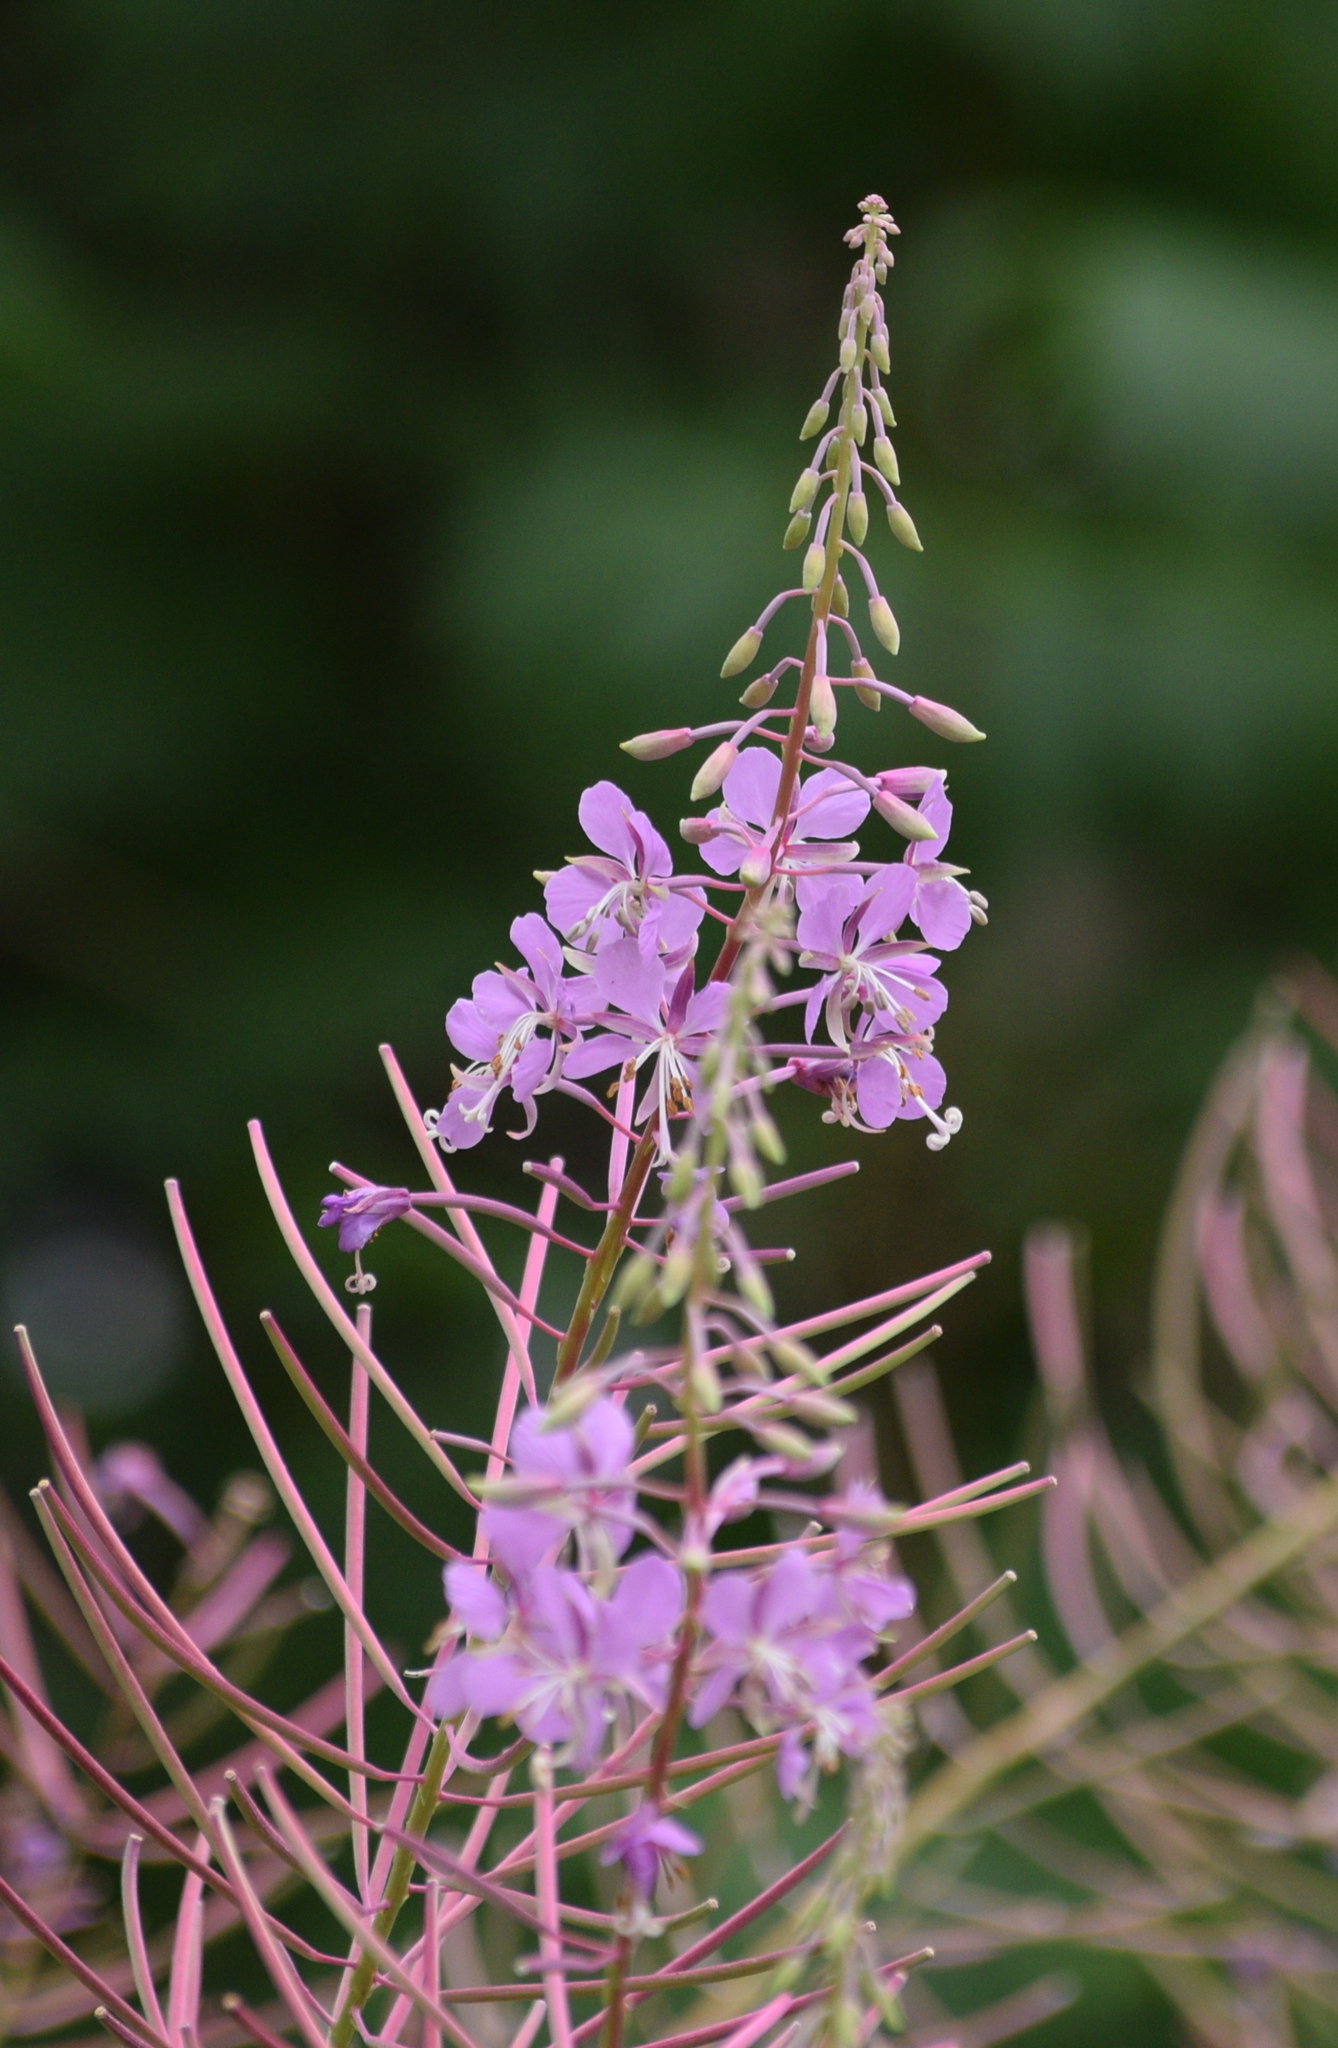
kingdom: Plantae
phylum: Tracheophyta
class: Magnoliopsida
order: Myrtales
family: Onagraceae
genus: Chamaenerion
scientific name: Chamaenerion angustifolium
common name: Fireweed
